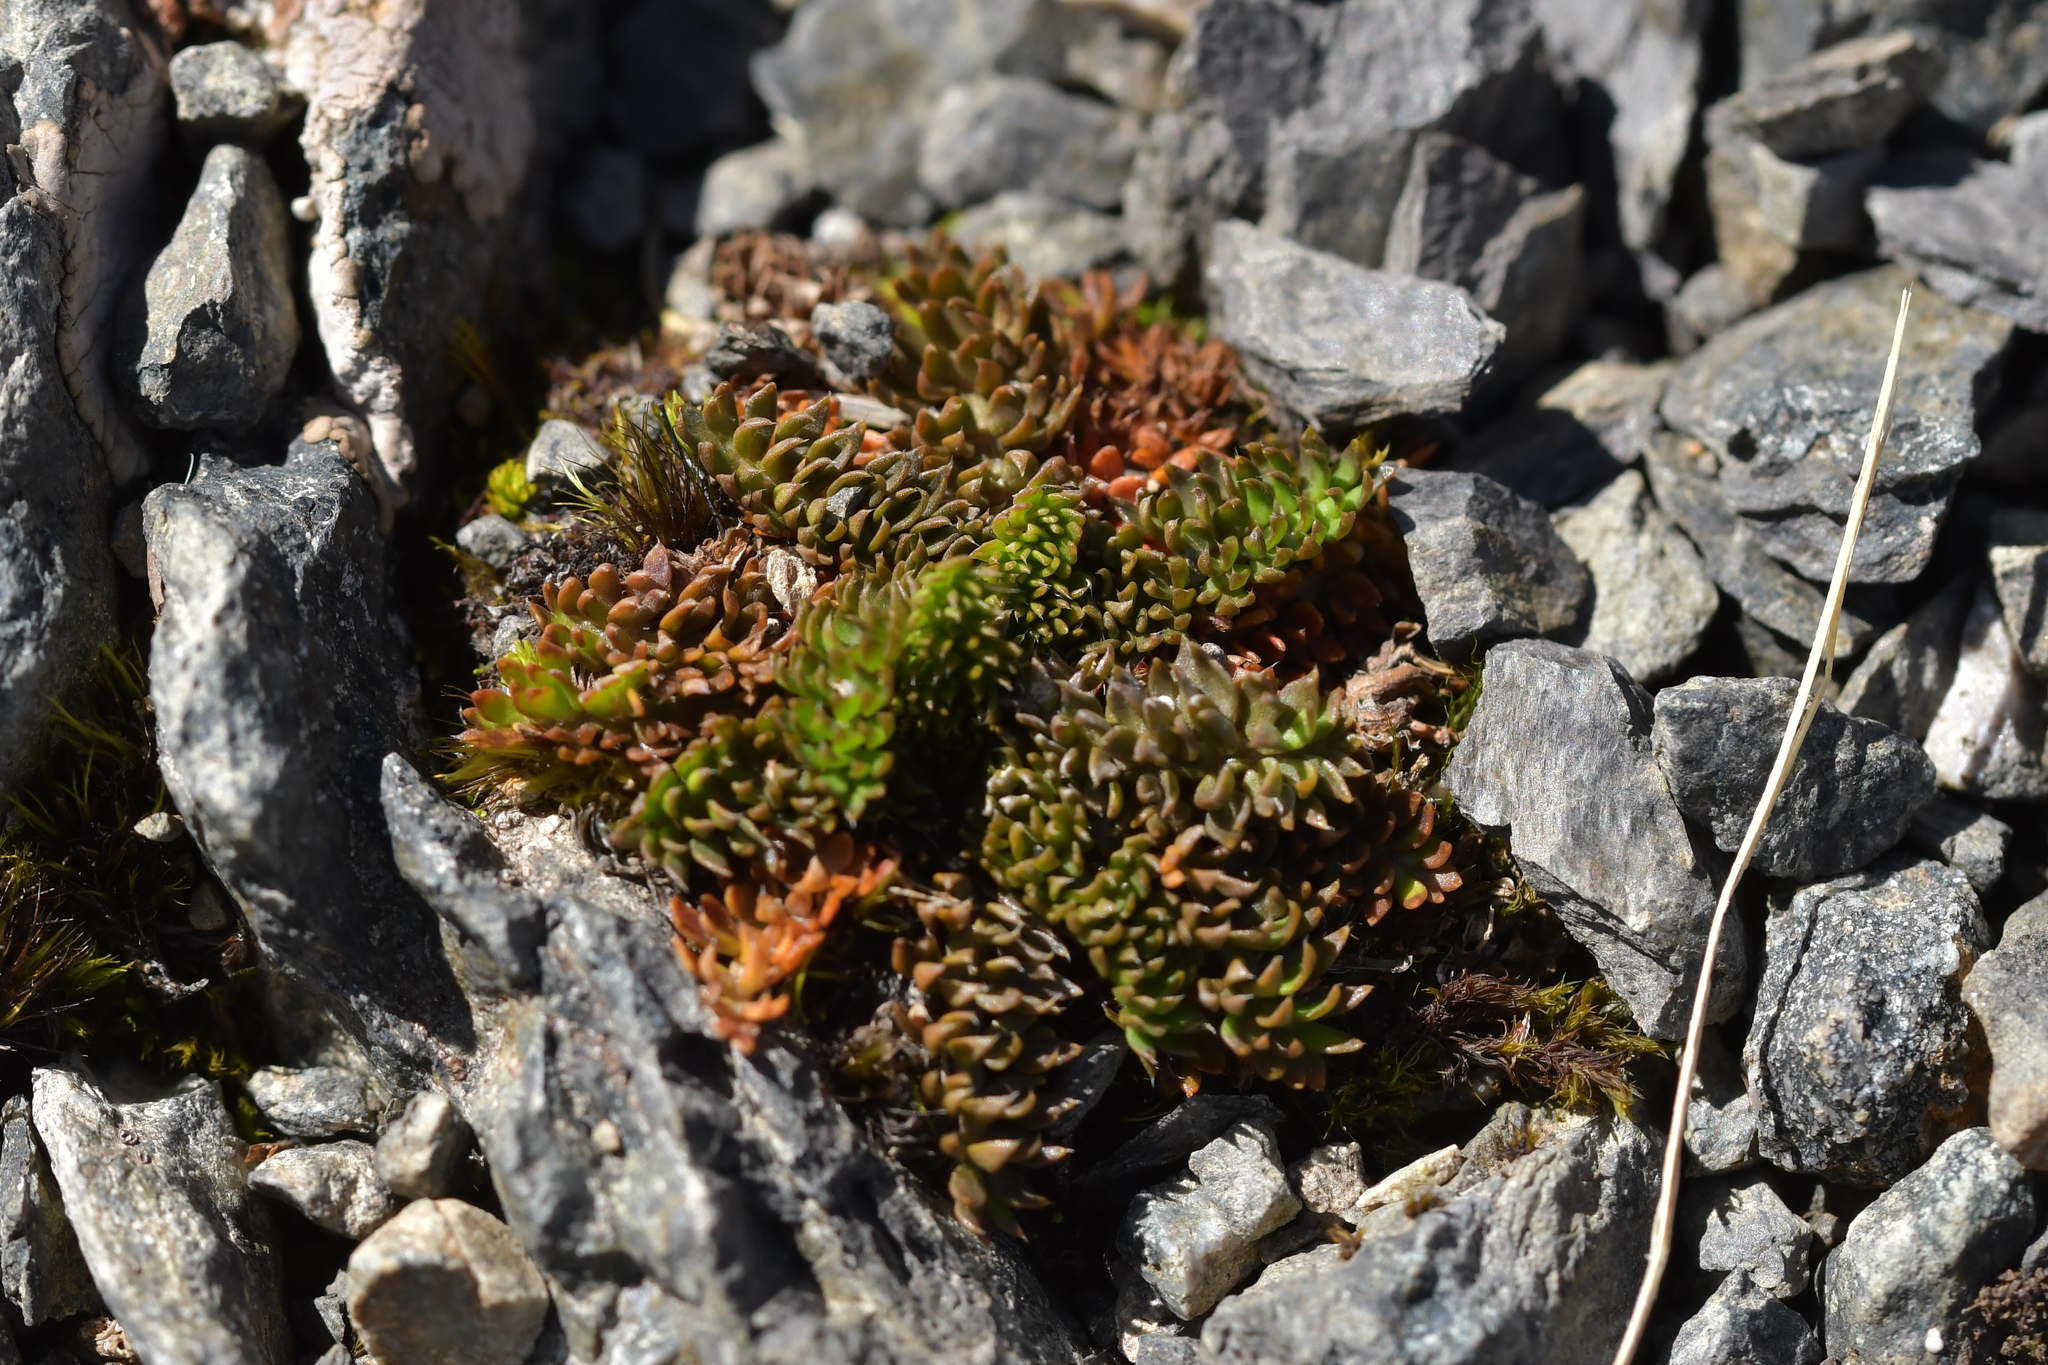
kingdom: Plantae
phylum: Tracheophyta
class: Magnoliopsida
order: Apiales
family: Apiaceae
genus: Chaerophyllum
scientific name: Chaerophyllum colensoi
